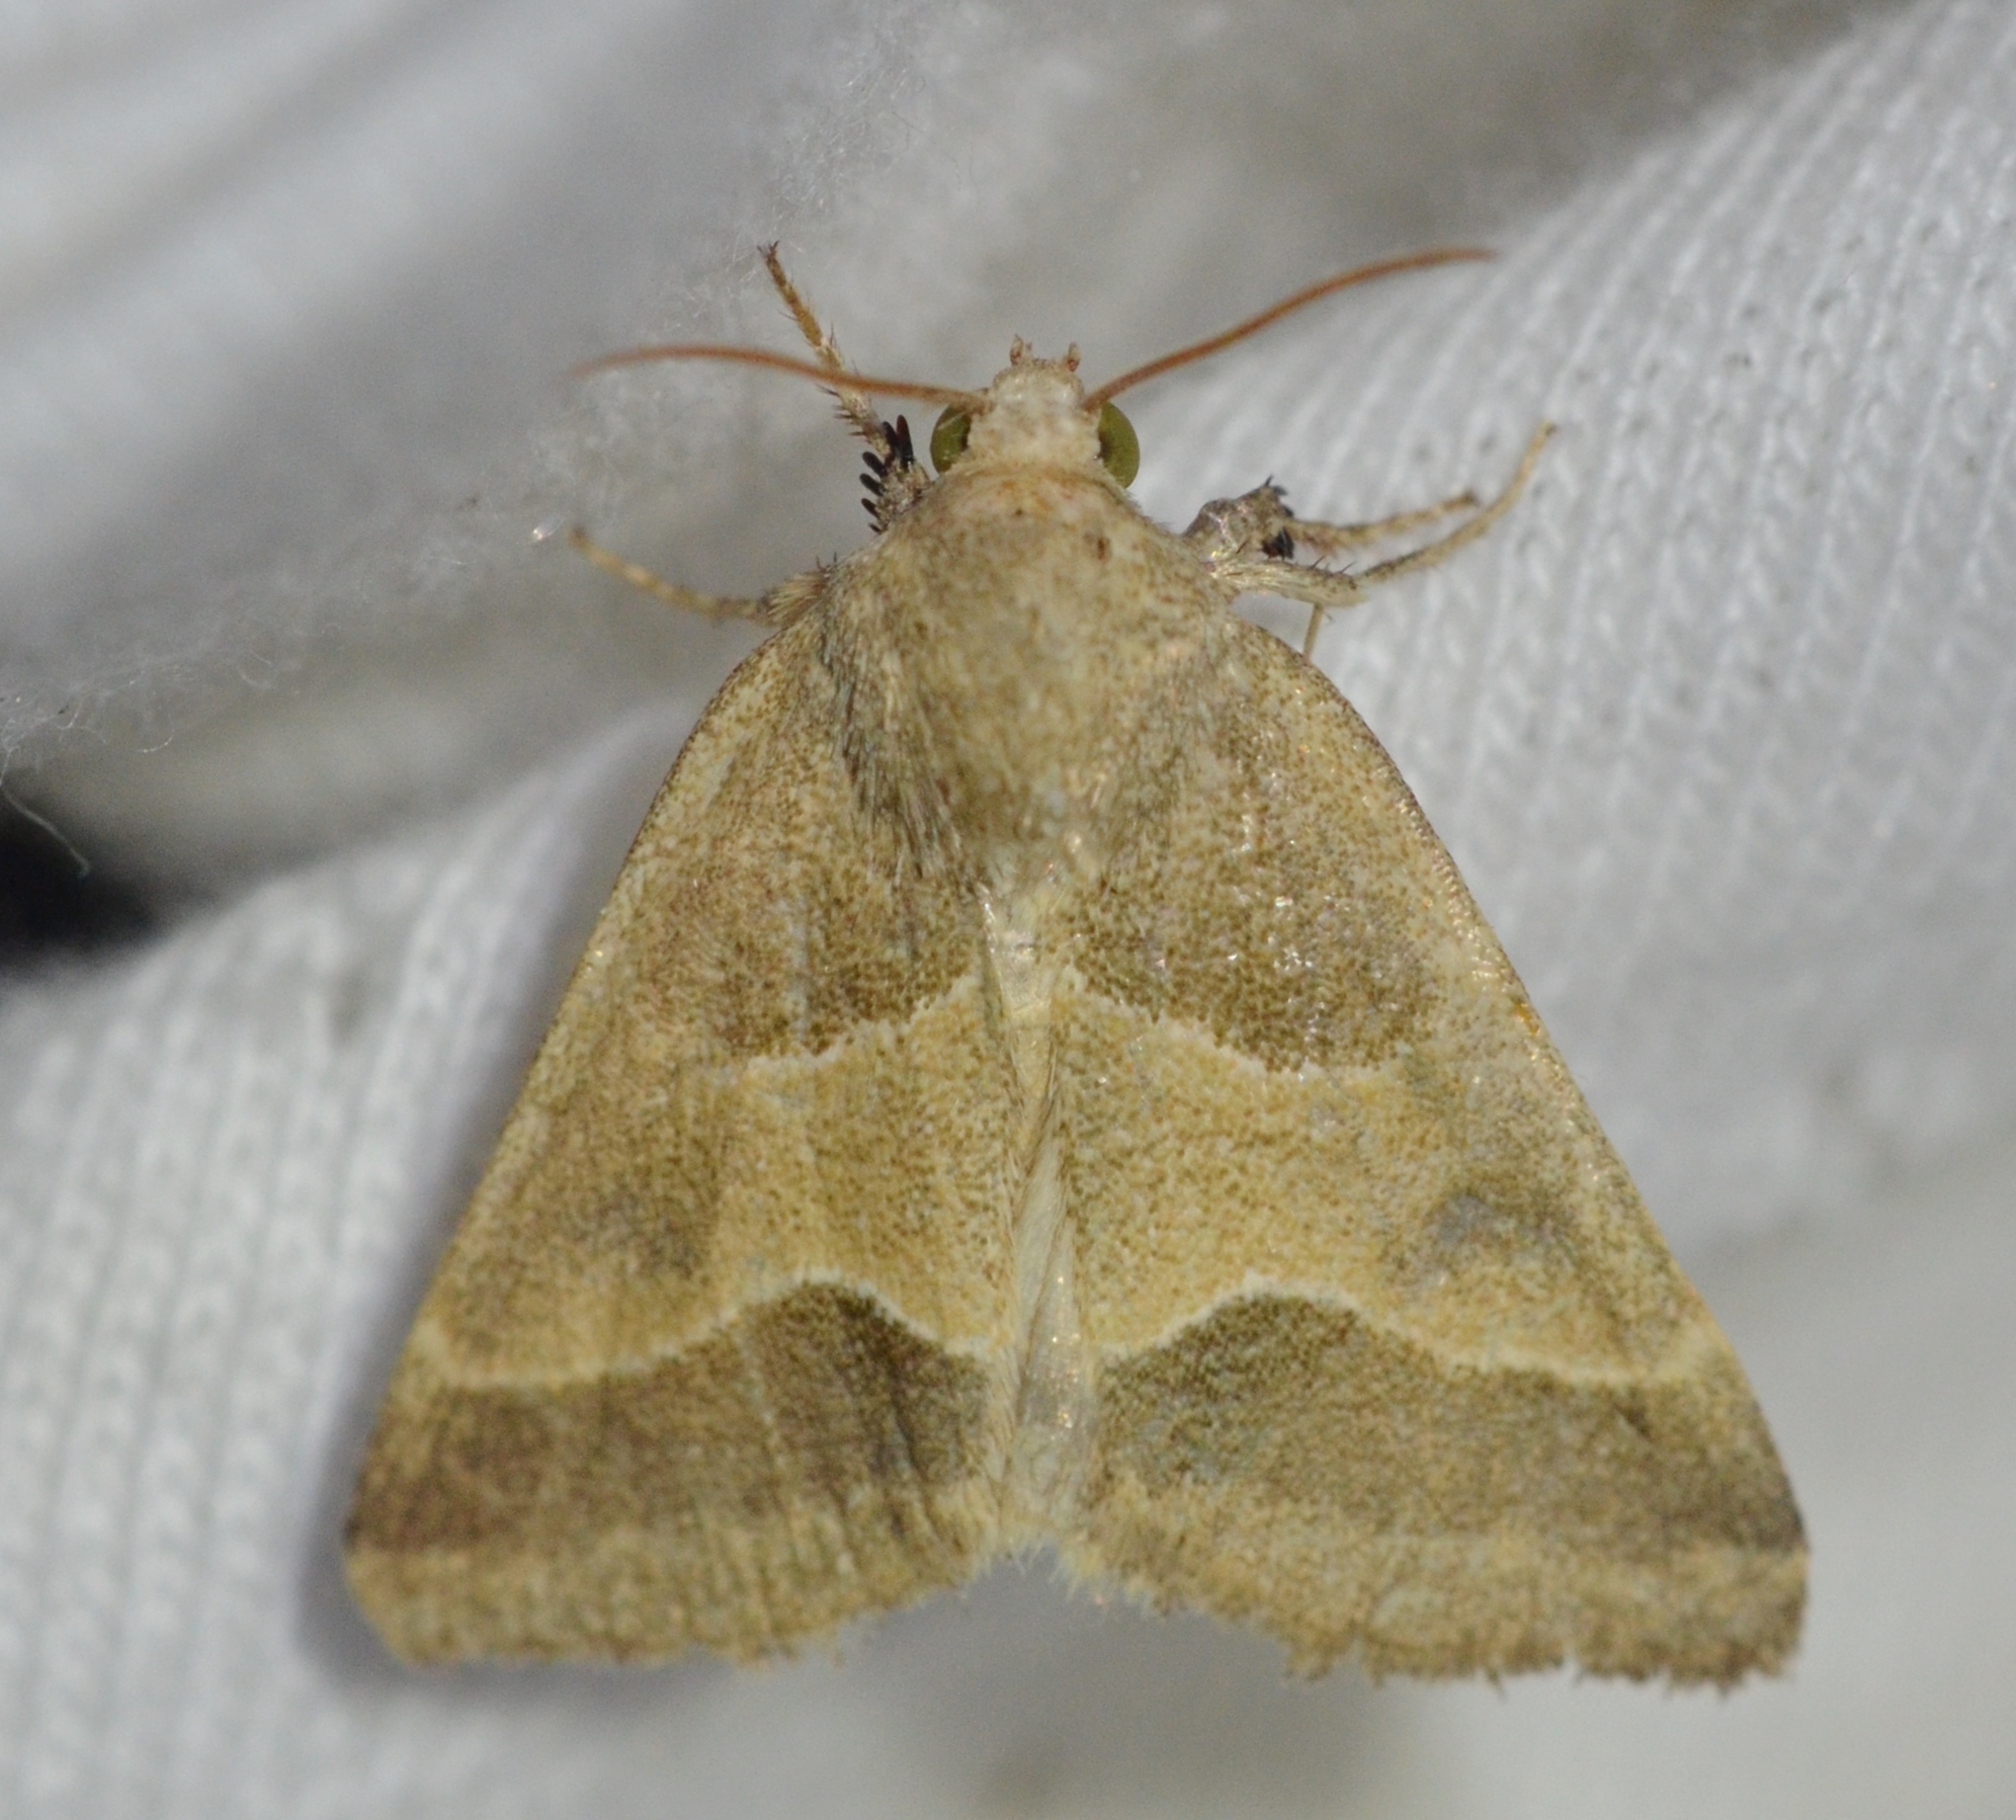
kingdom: Animalia
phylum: Arthropoda
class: Insecta
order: Lepidoptera
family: Noctuidae
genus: Schinia
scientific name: Schinia gracilenta
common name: Slender flower moth
